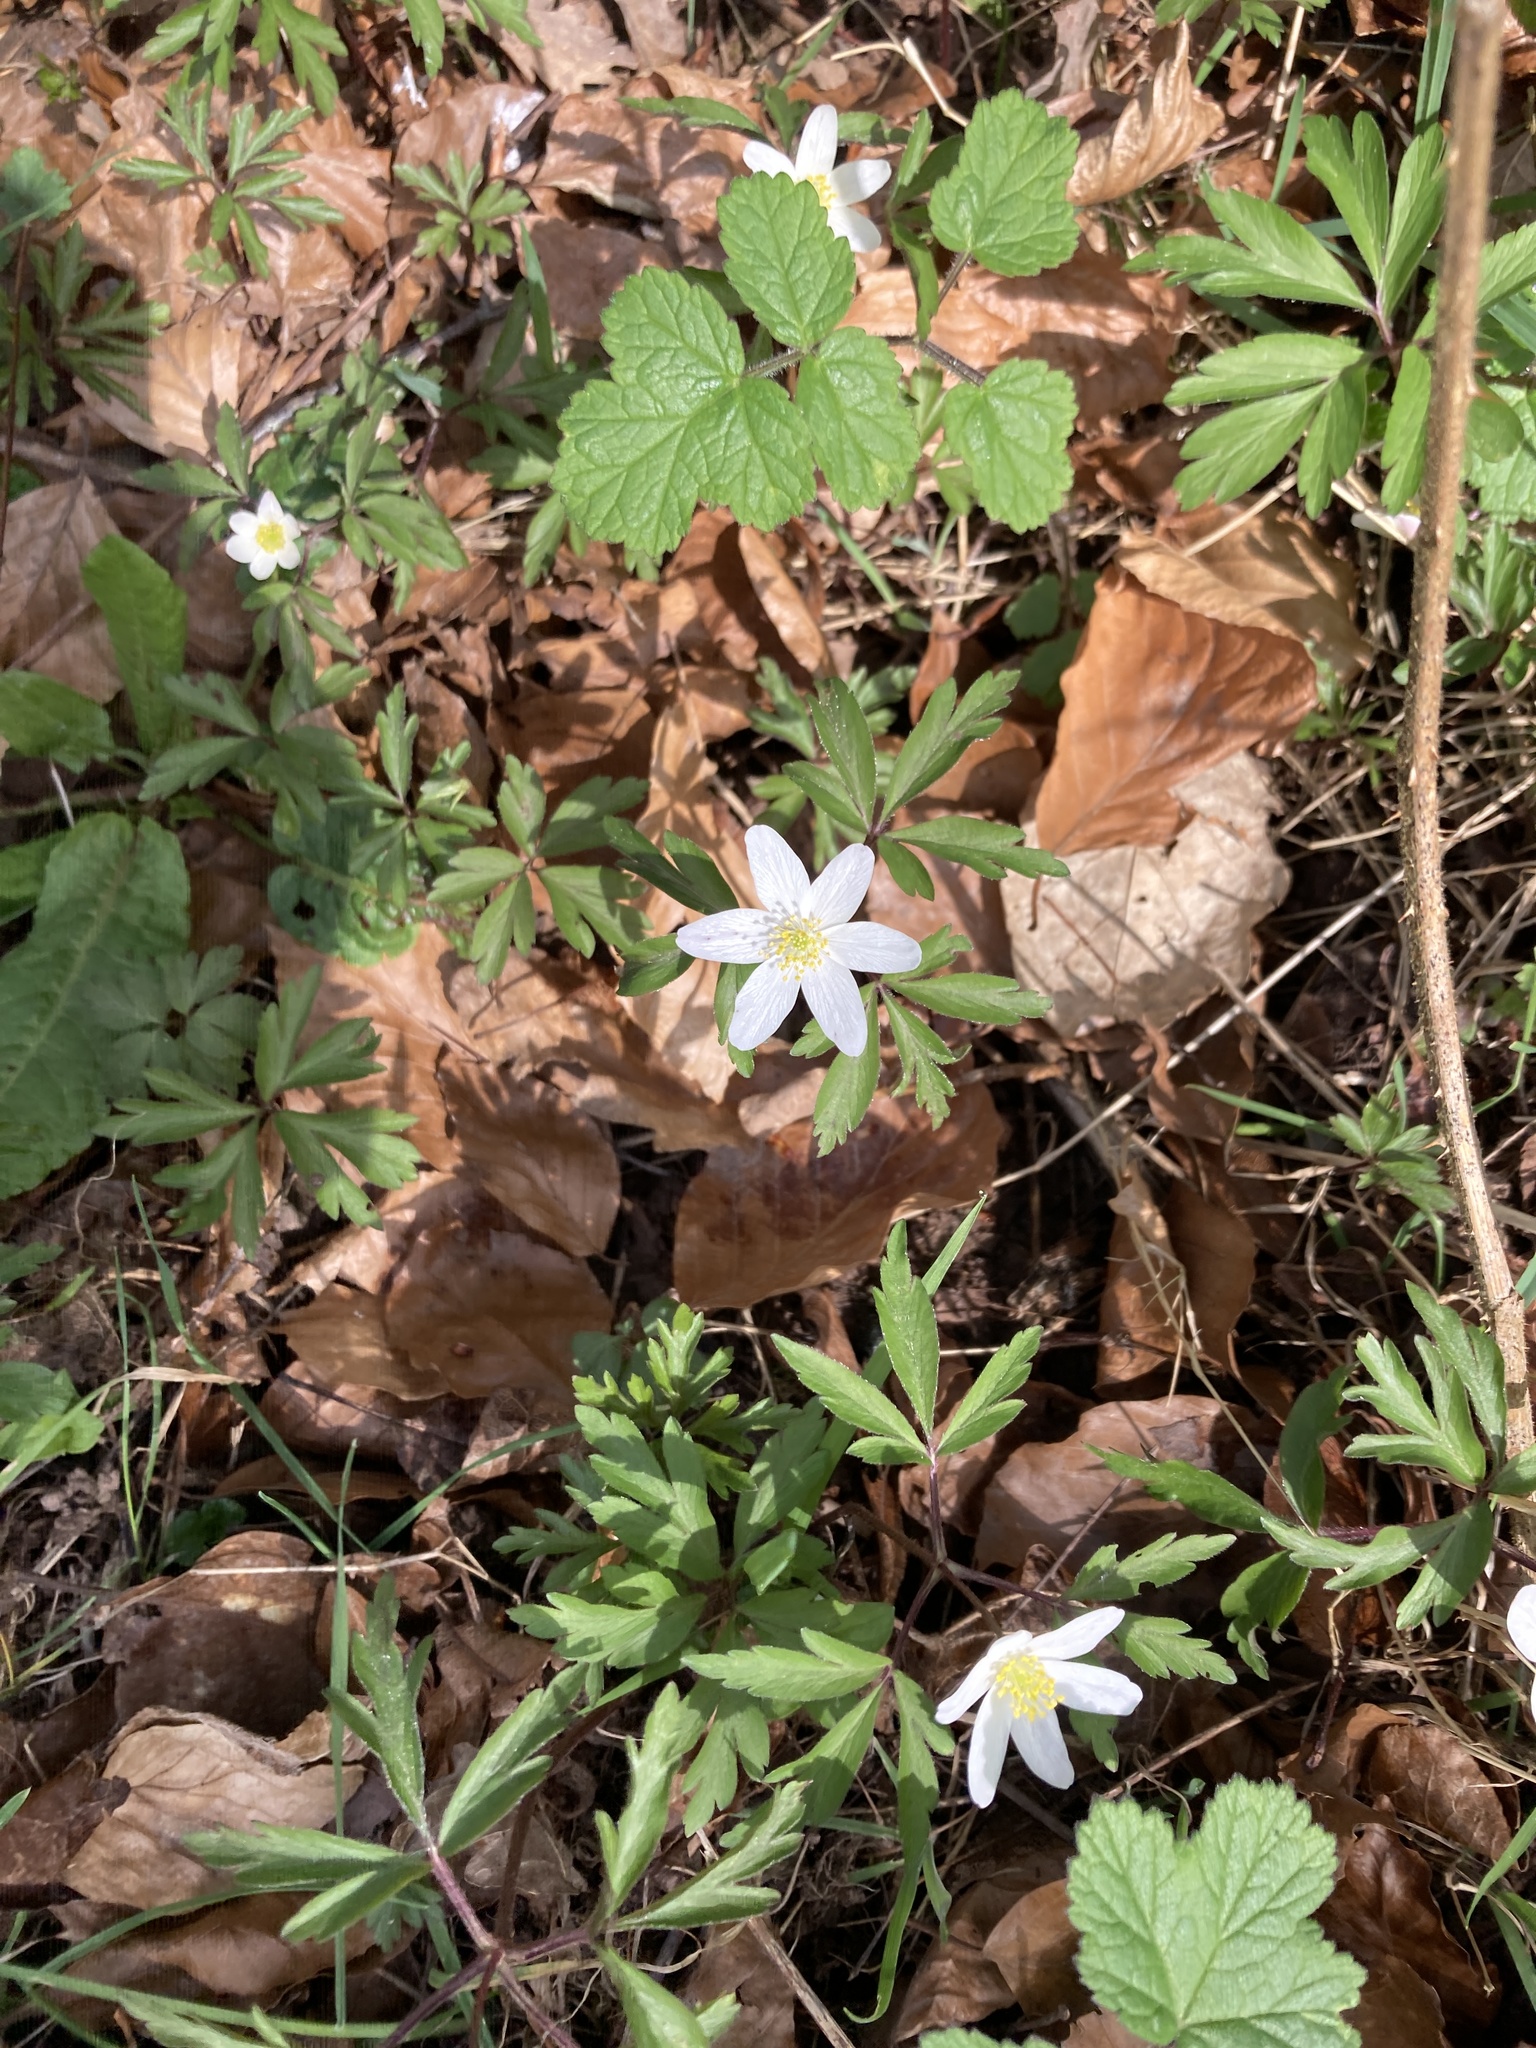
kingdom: Plantae
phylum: Tracheophyta
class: Magnoliopsida
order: Ranunculales
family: Ranunculaceae
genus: Anemone
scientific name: Anemone nemorosa
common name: Wood anemone
